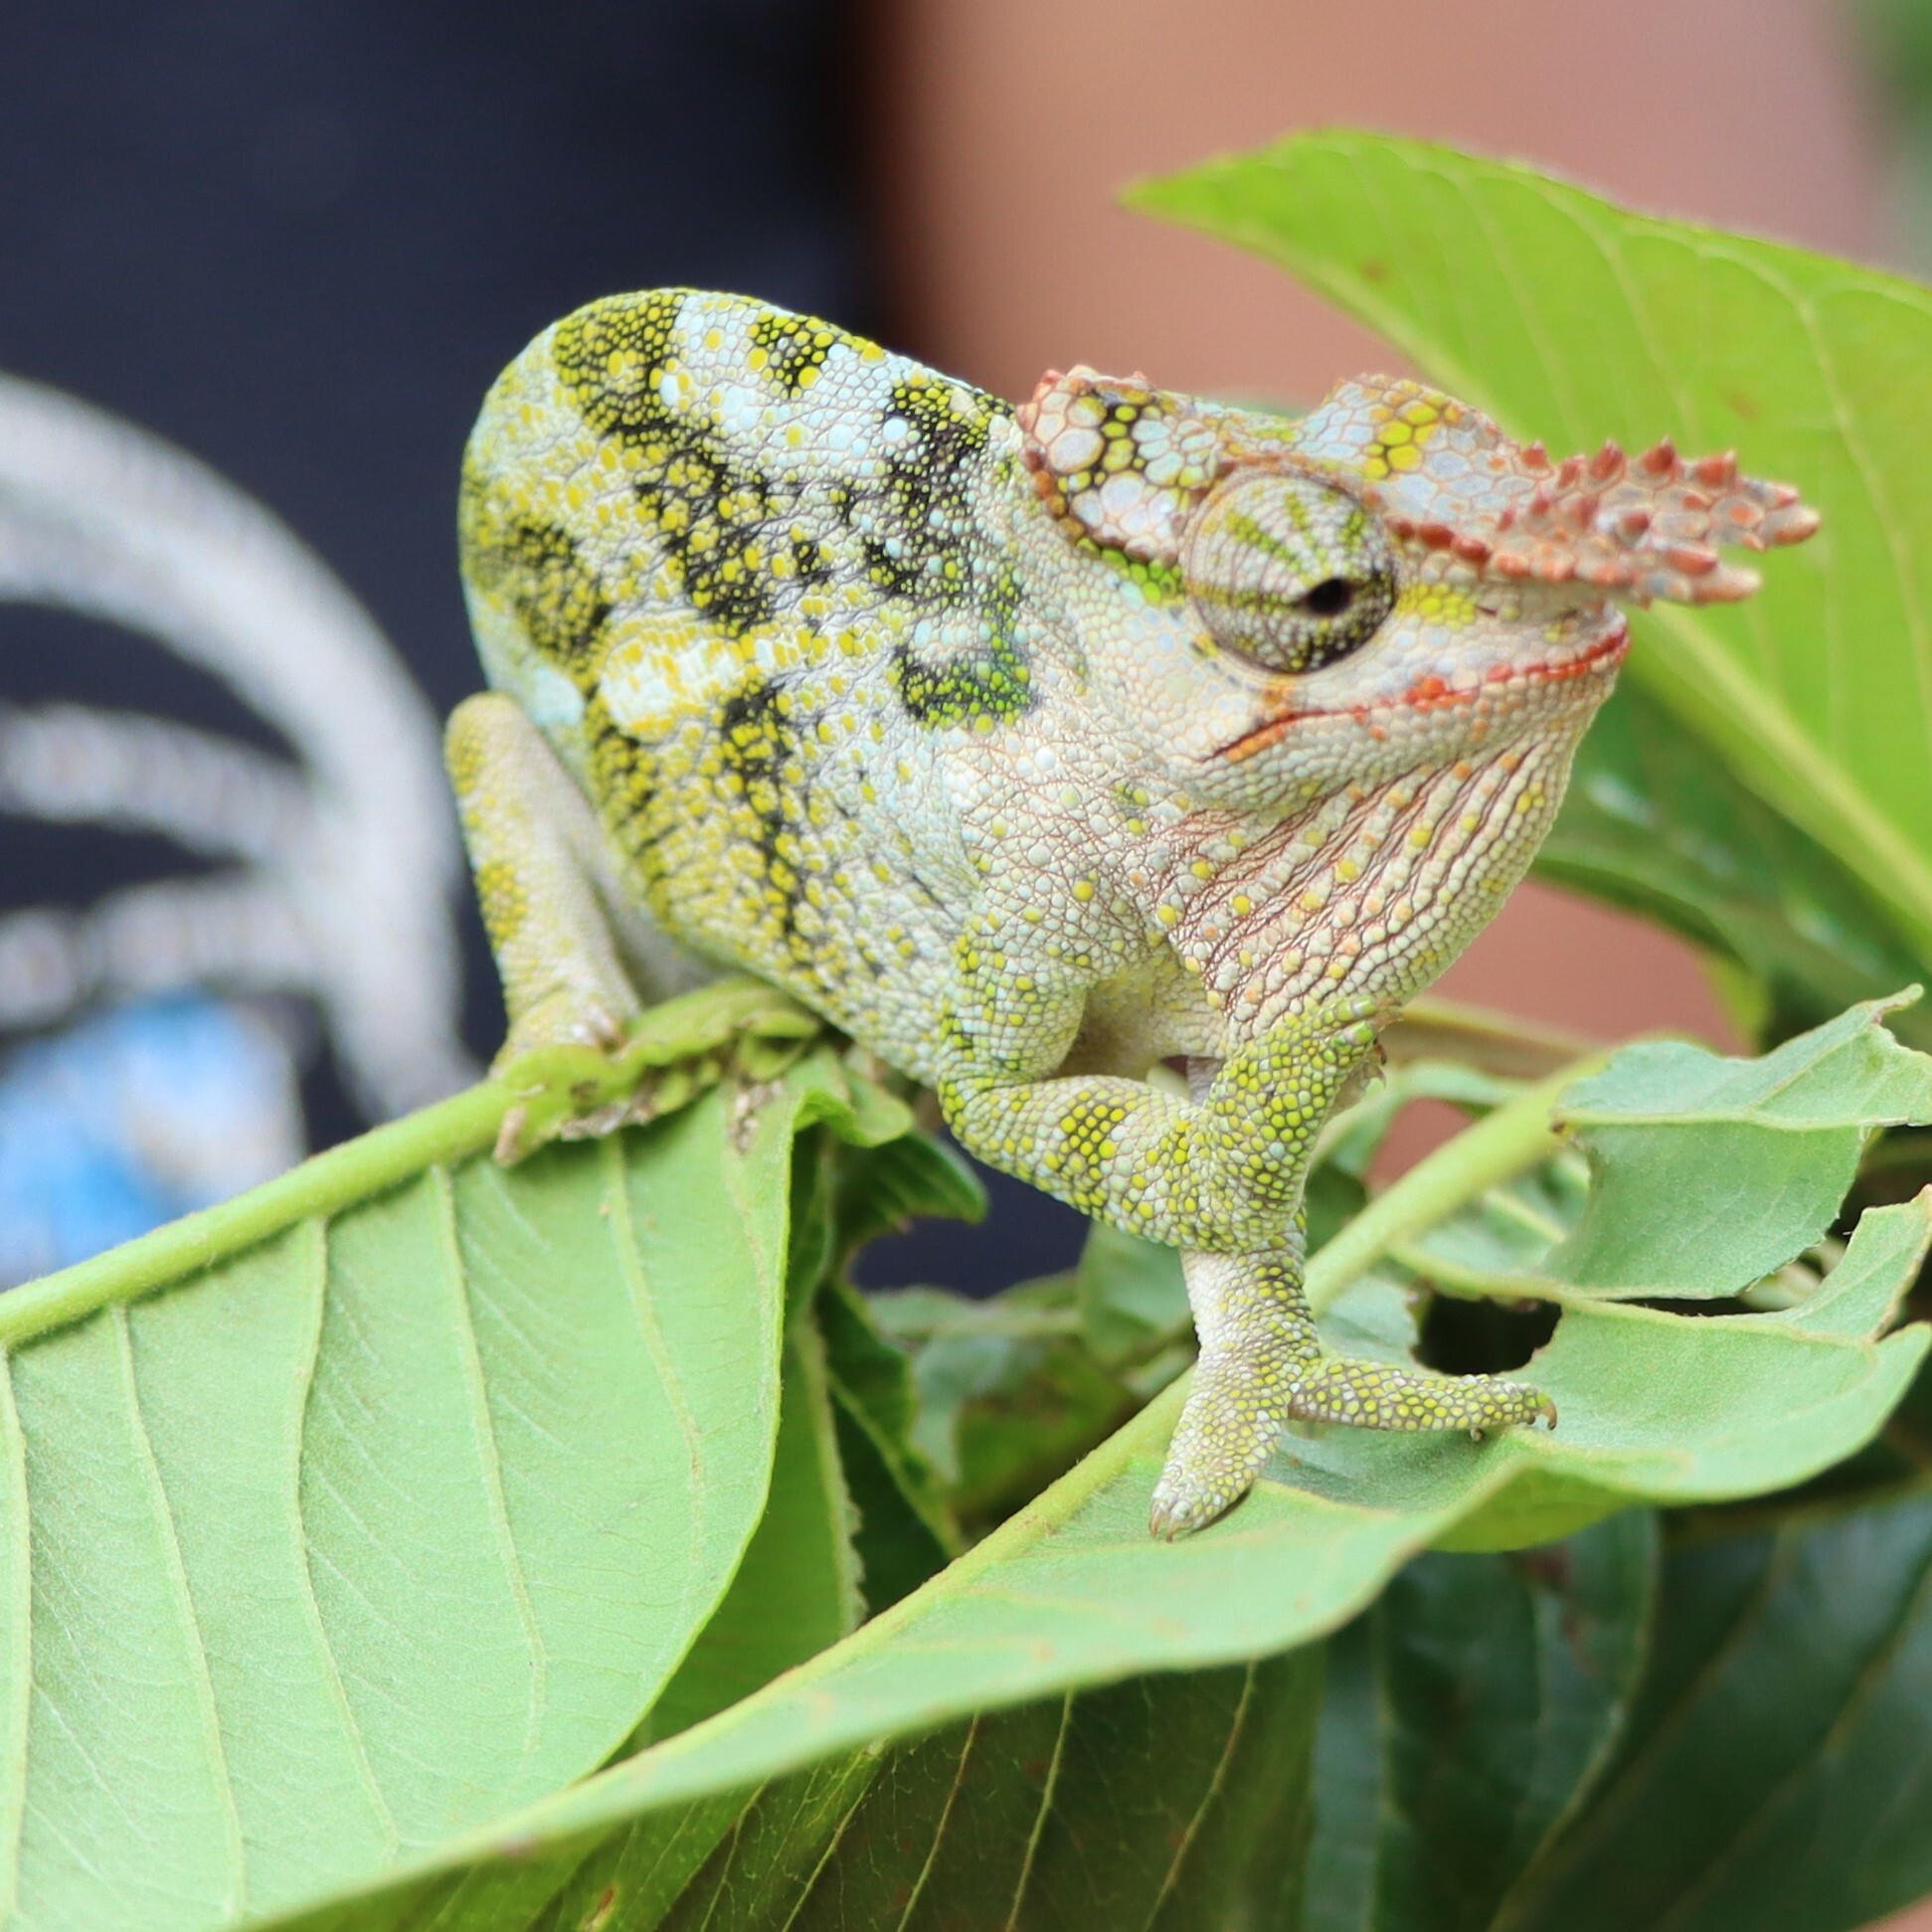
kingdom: Animalia
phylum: Chordata
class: Squamata
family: Chamaeleonidae
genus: Kinyongia
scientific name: Kinyongia tavetana
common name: Kilimanjaro blade-horned chameleon
